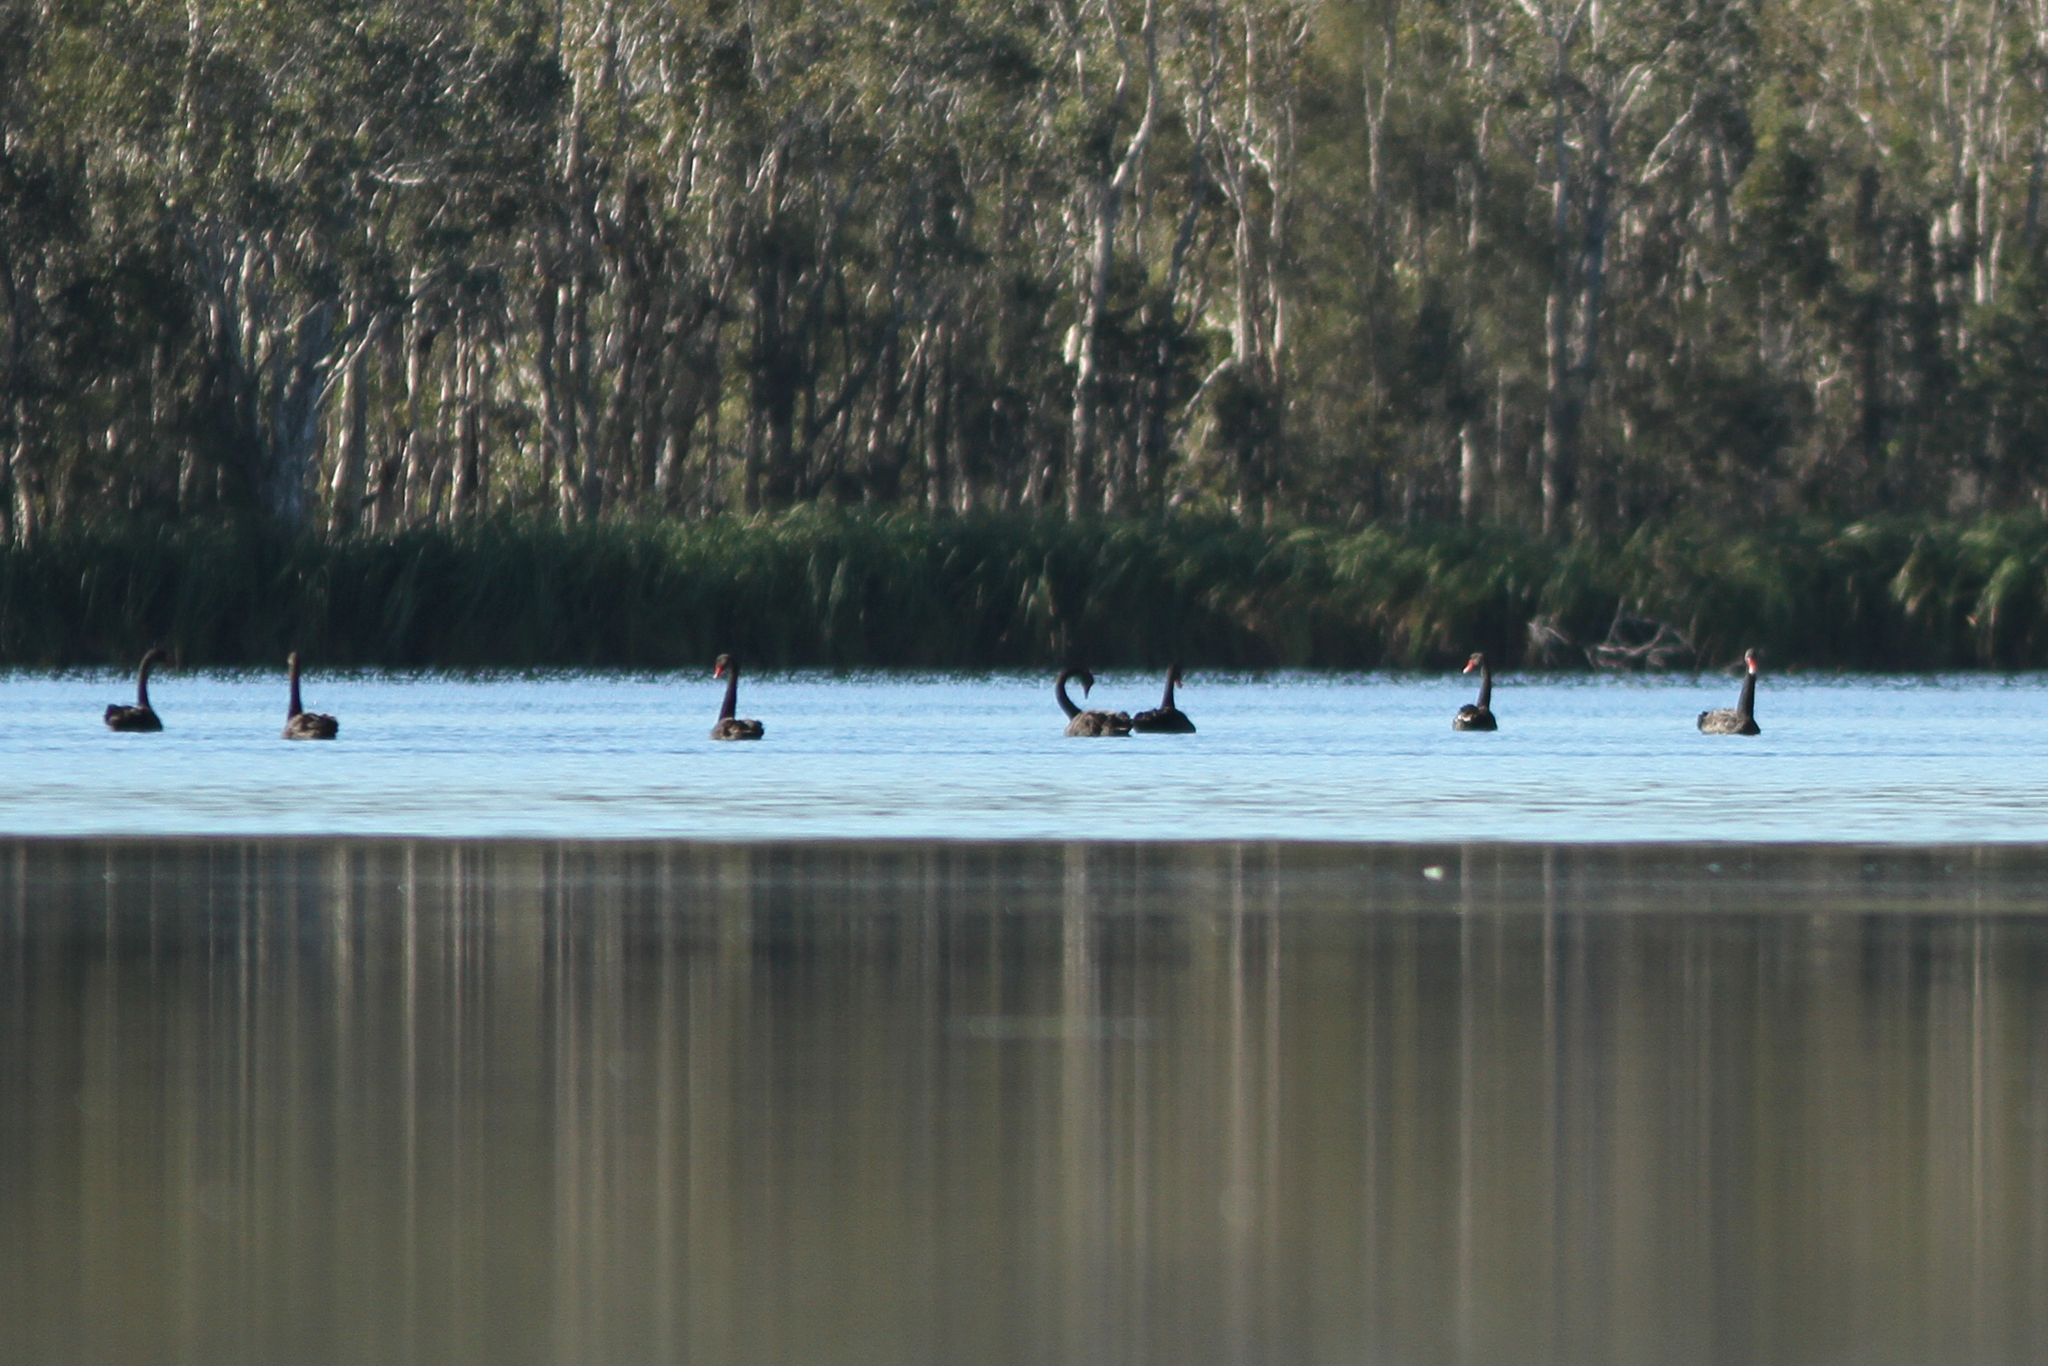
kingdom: Animalia
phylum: Chordata
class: Aves
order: Anseriformes
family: Anatidae
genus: Cygnus
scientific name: Cygnus atratus
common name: Black swan
